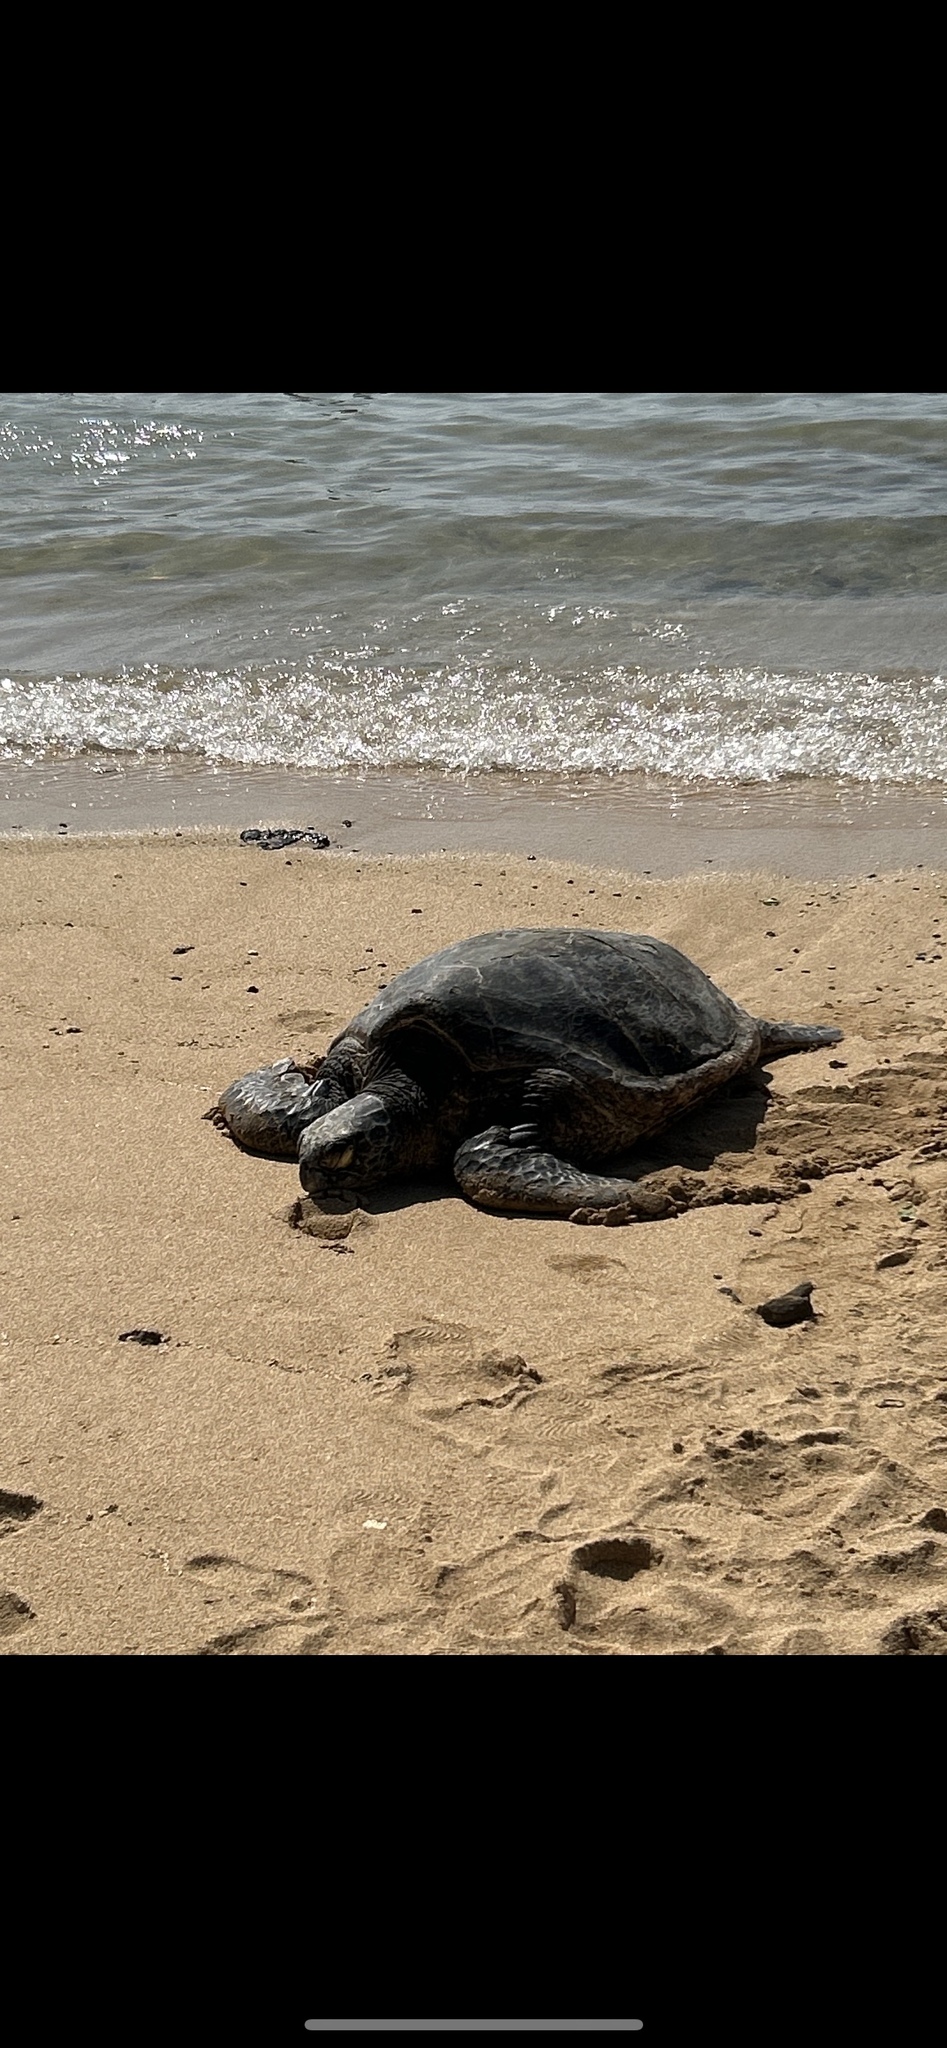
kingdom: Animalia
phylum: Chordata
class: Testudines
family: Cheloniidae
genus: Chelonia
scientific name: Chelonia mydas
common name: Green turtle
